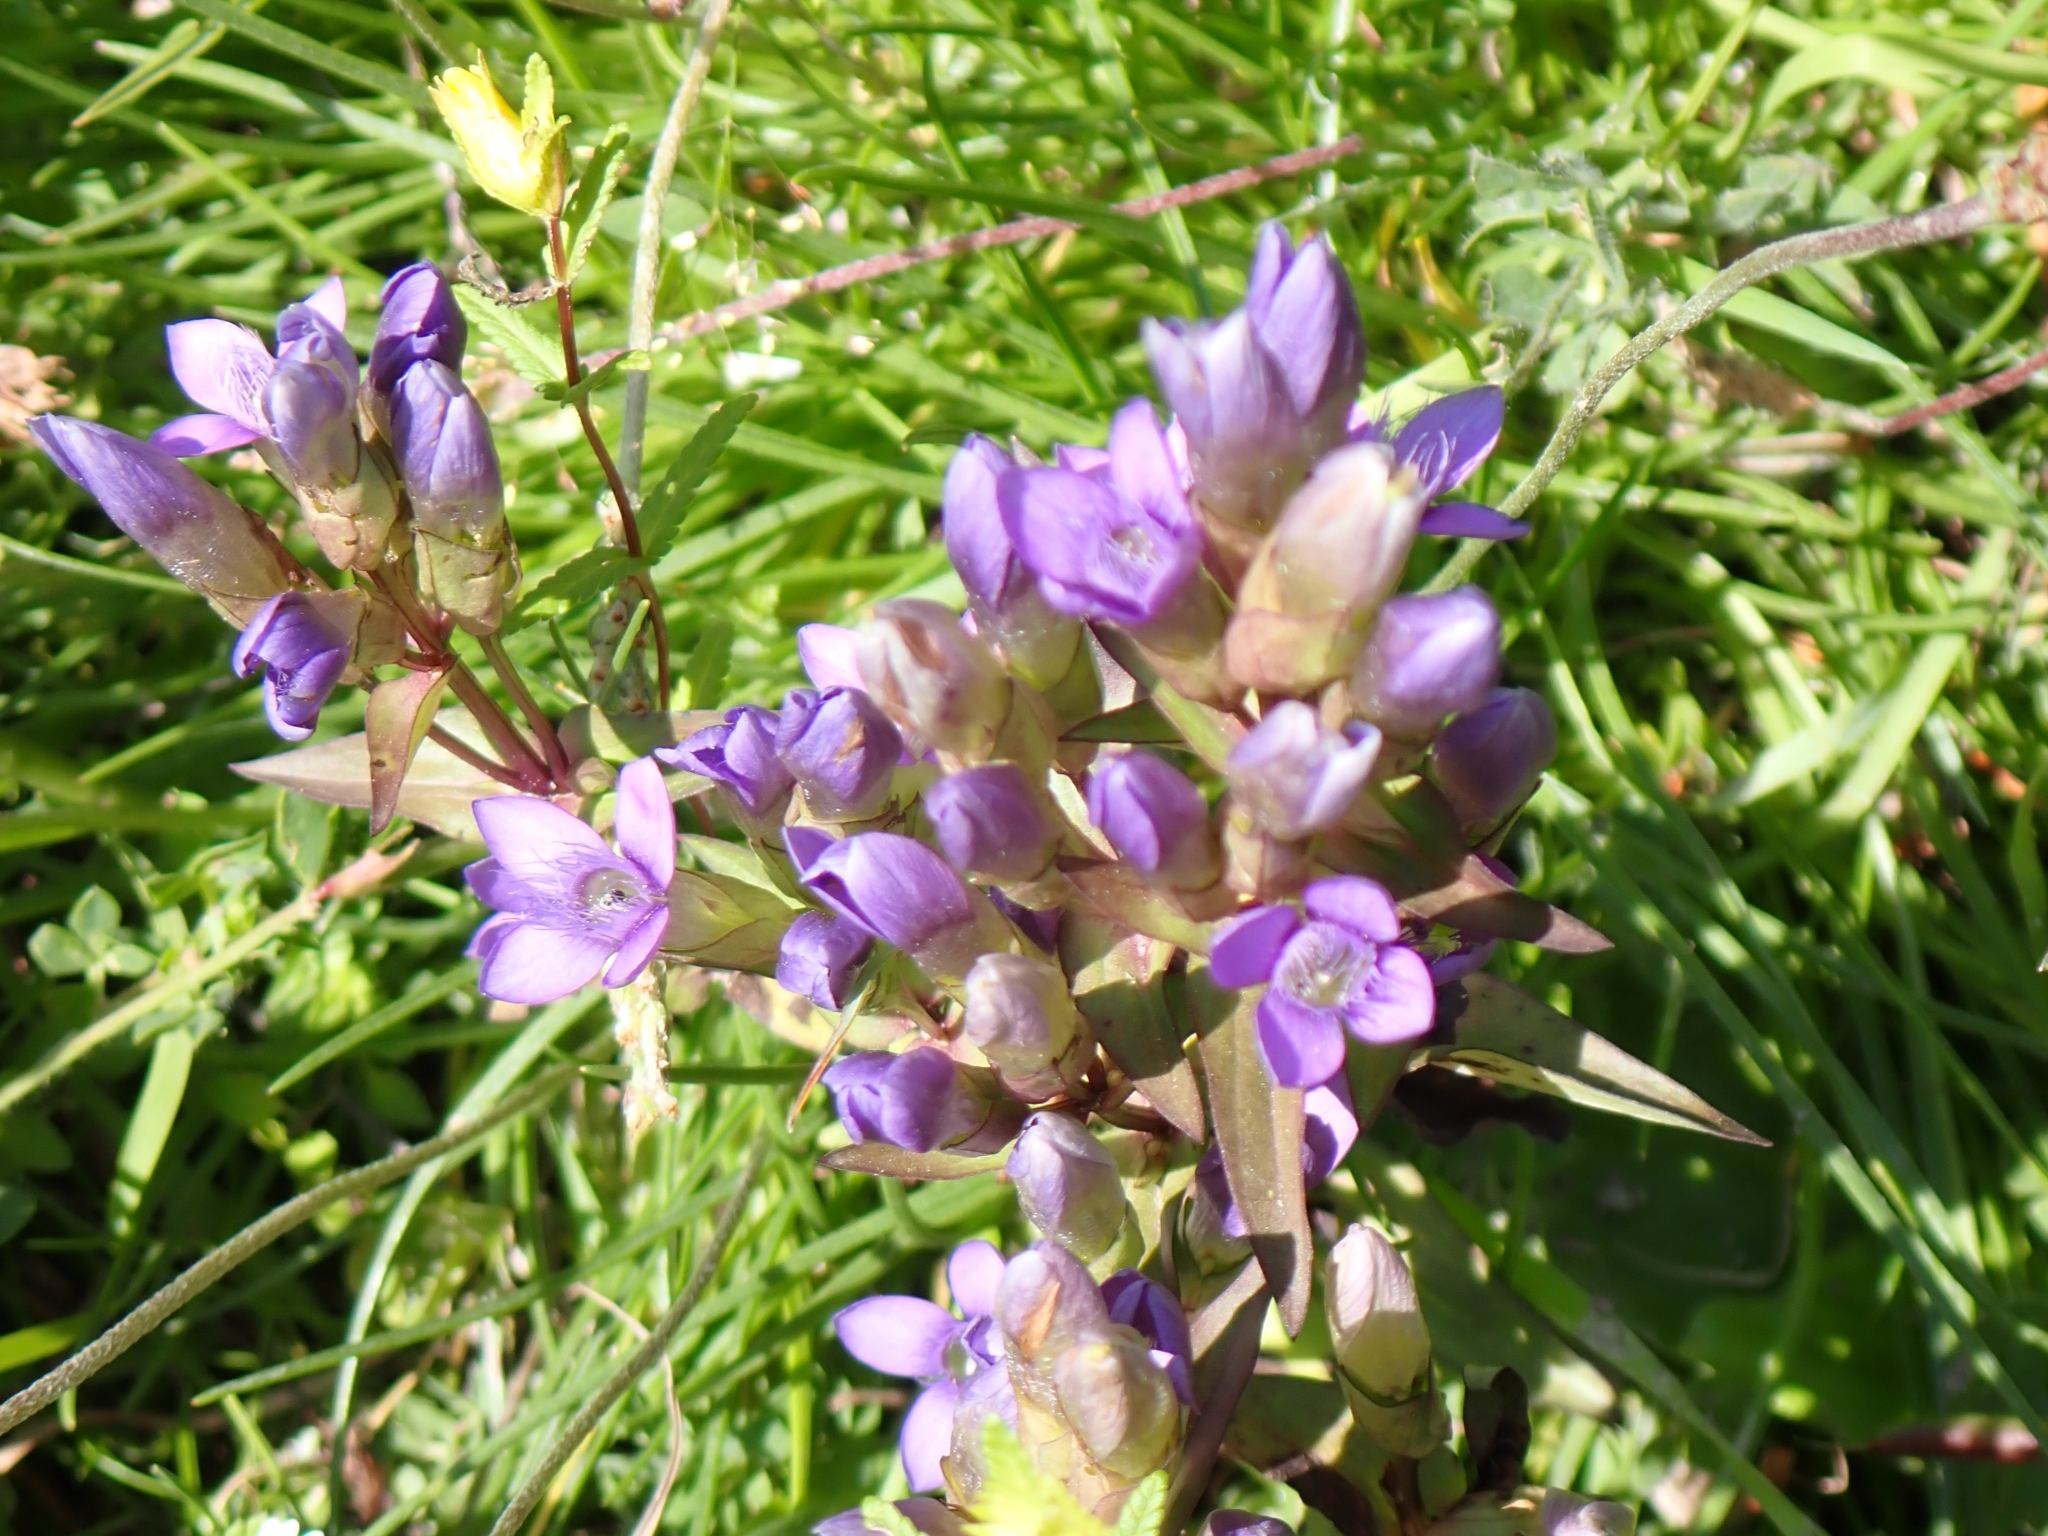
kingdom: Plantae
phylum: Tracheophyta
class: Magnoliopsida
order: Gentianales
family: Gentianaceae
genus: Gentianella
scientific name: Gentianella campestris
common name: Field gentian
